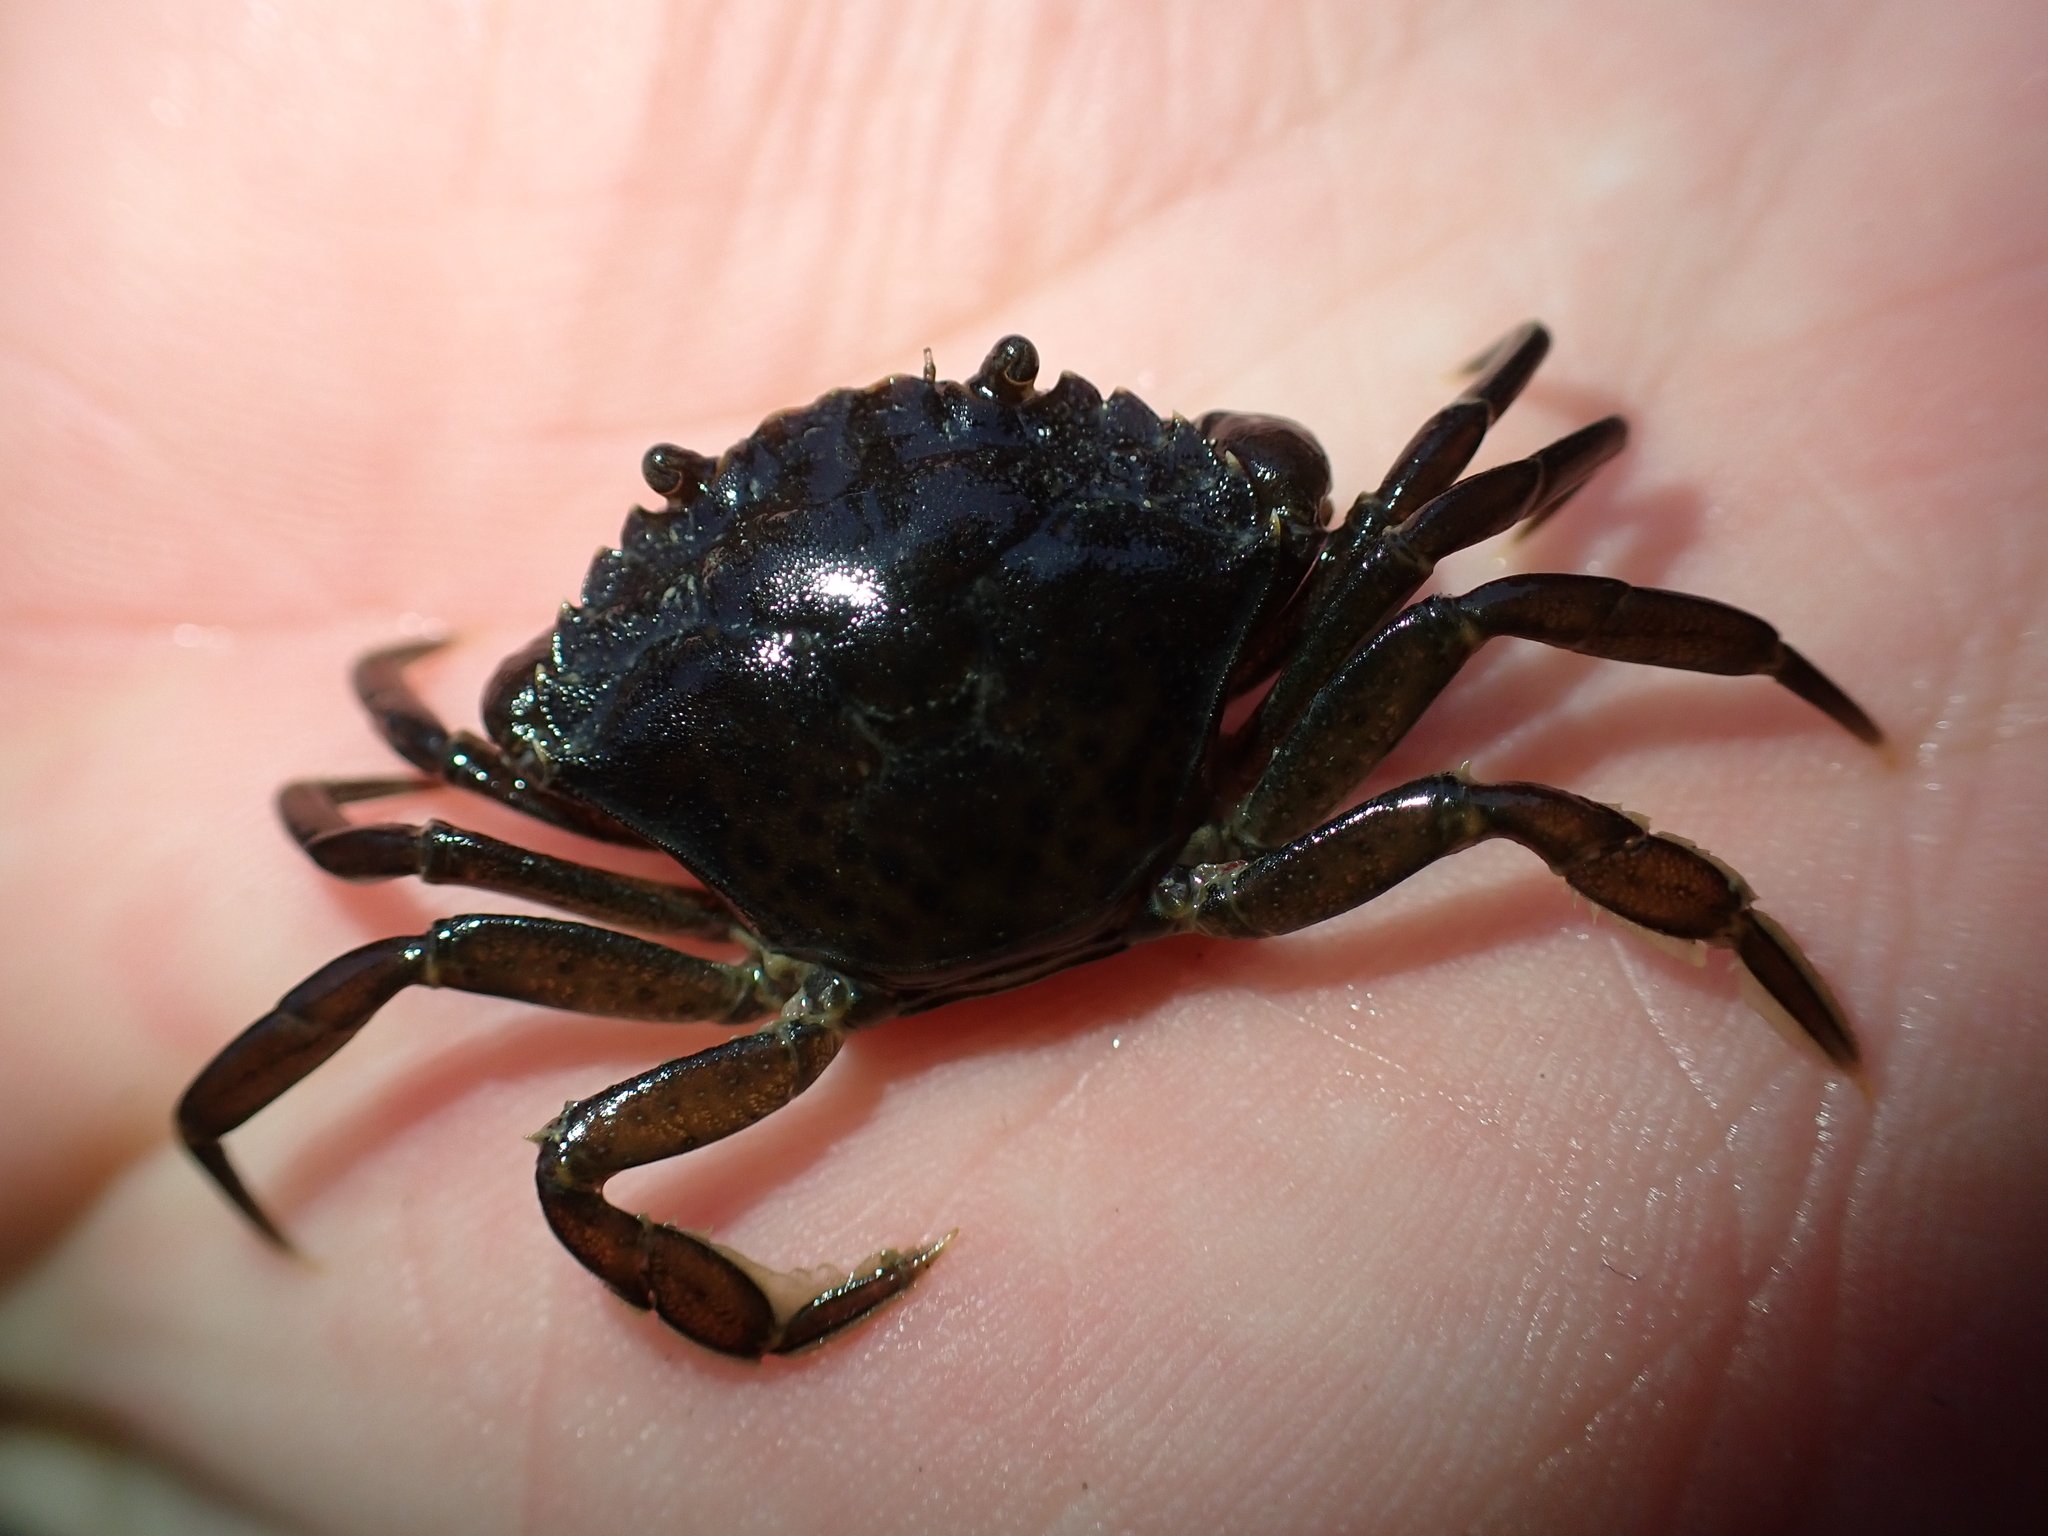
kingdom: Animalia
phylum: Arthropoda
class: Malacostraca
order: Decapoda
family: Carcinidae
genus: Carcinus
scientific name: Carcinus maenas
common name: European green crab
